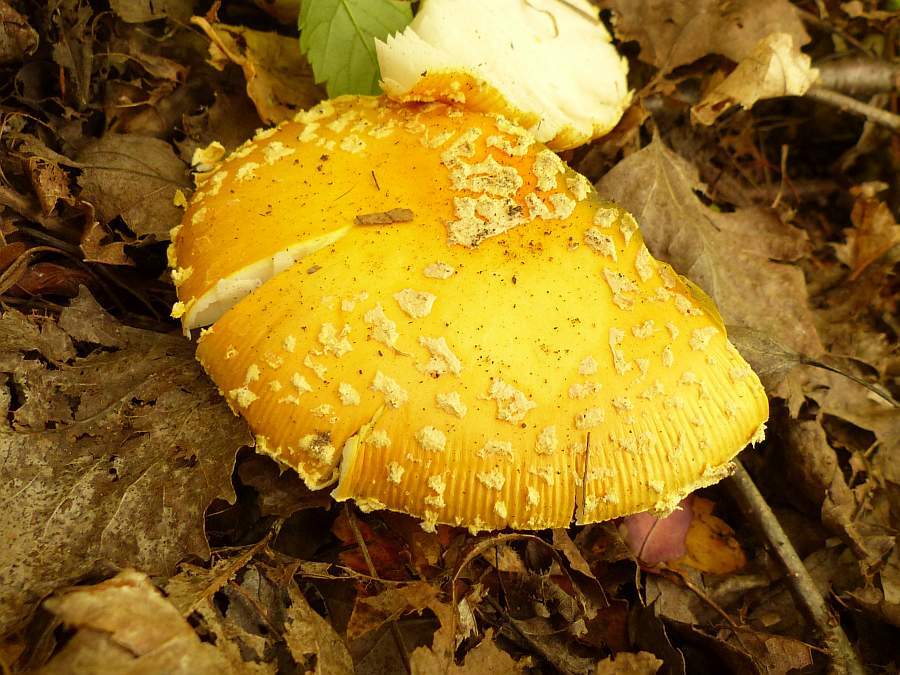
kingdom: Fungi
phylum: Basidiomycota
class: Agaricomycetes
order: Agaricales
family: Amanitaceae
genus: Amanita
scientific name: Amanita muscaria
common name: Fly agaric
